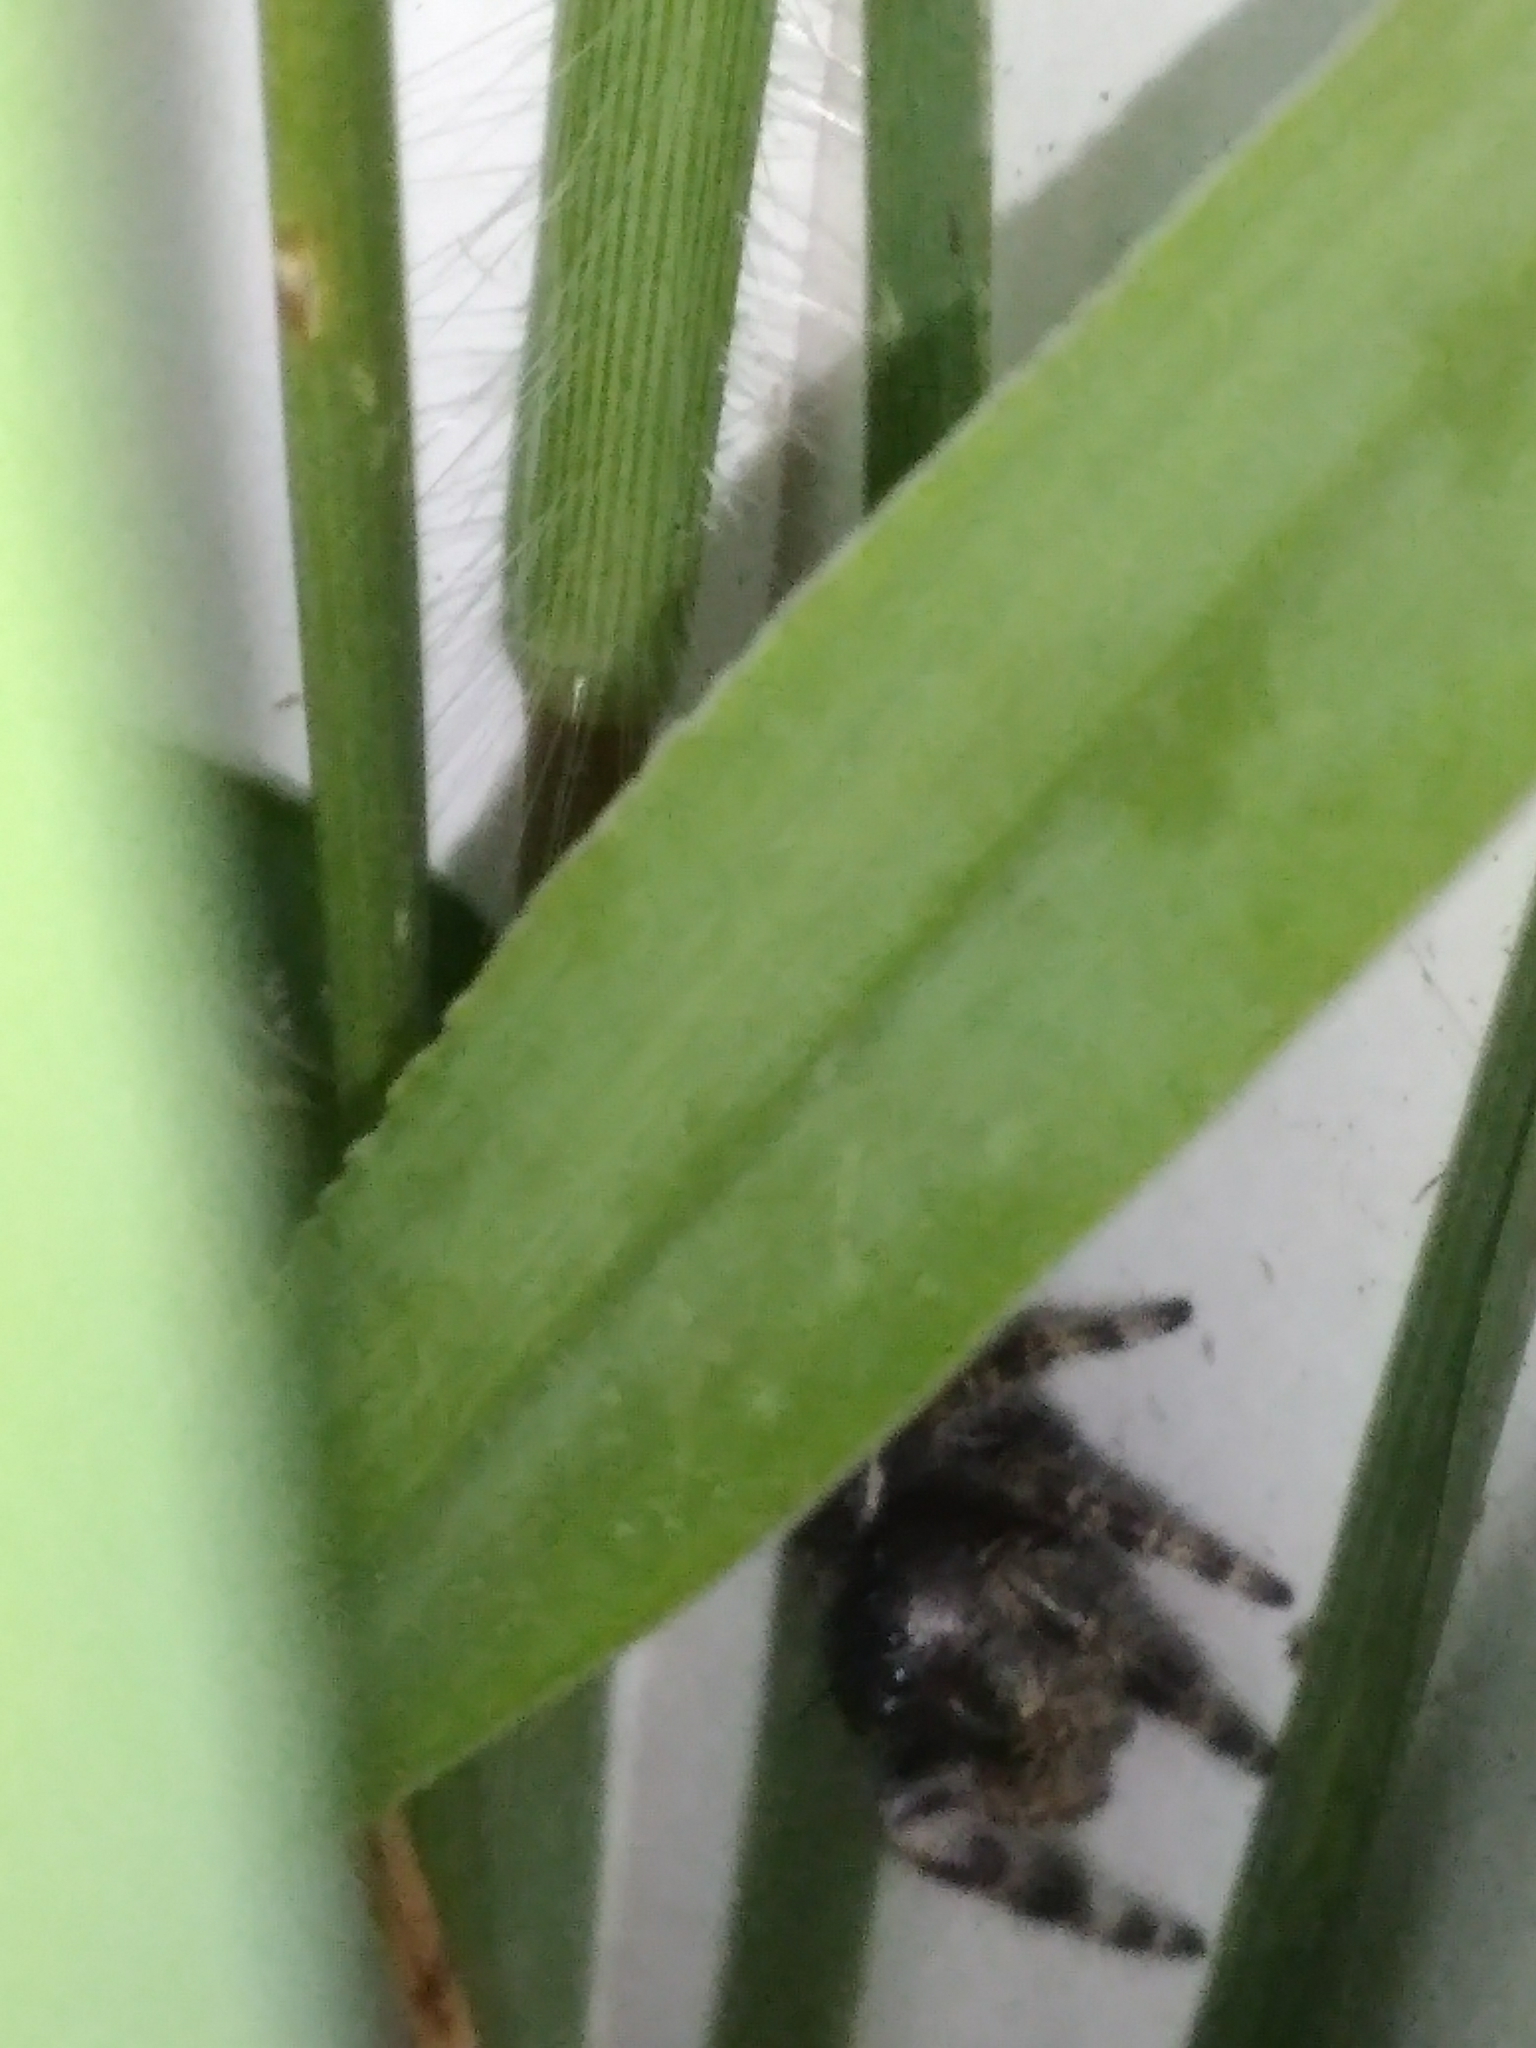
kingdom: Animalia
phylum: Arthropoda
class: Arachnida
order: Araneae
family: Salticidae
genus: Phidippus
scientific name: Phidippus audax
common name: Bold jumper
